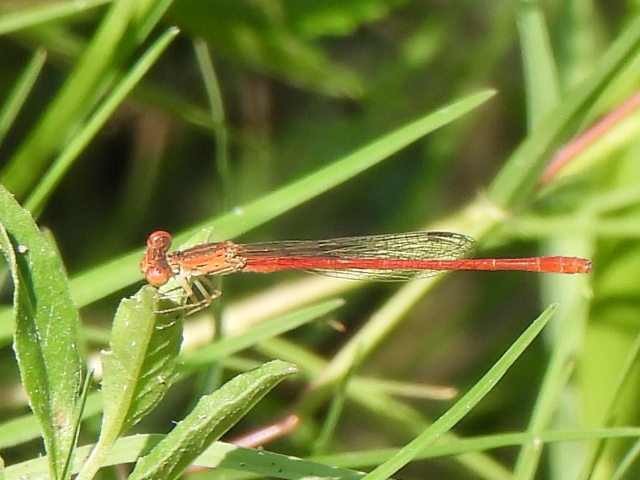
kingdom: Animalia
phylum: Arthropoda
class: Insecta
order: Odonata
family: Coenagrionidae
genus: Telebasis
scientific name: Telebasis salva
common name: Desert firetail
